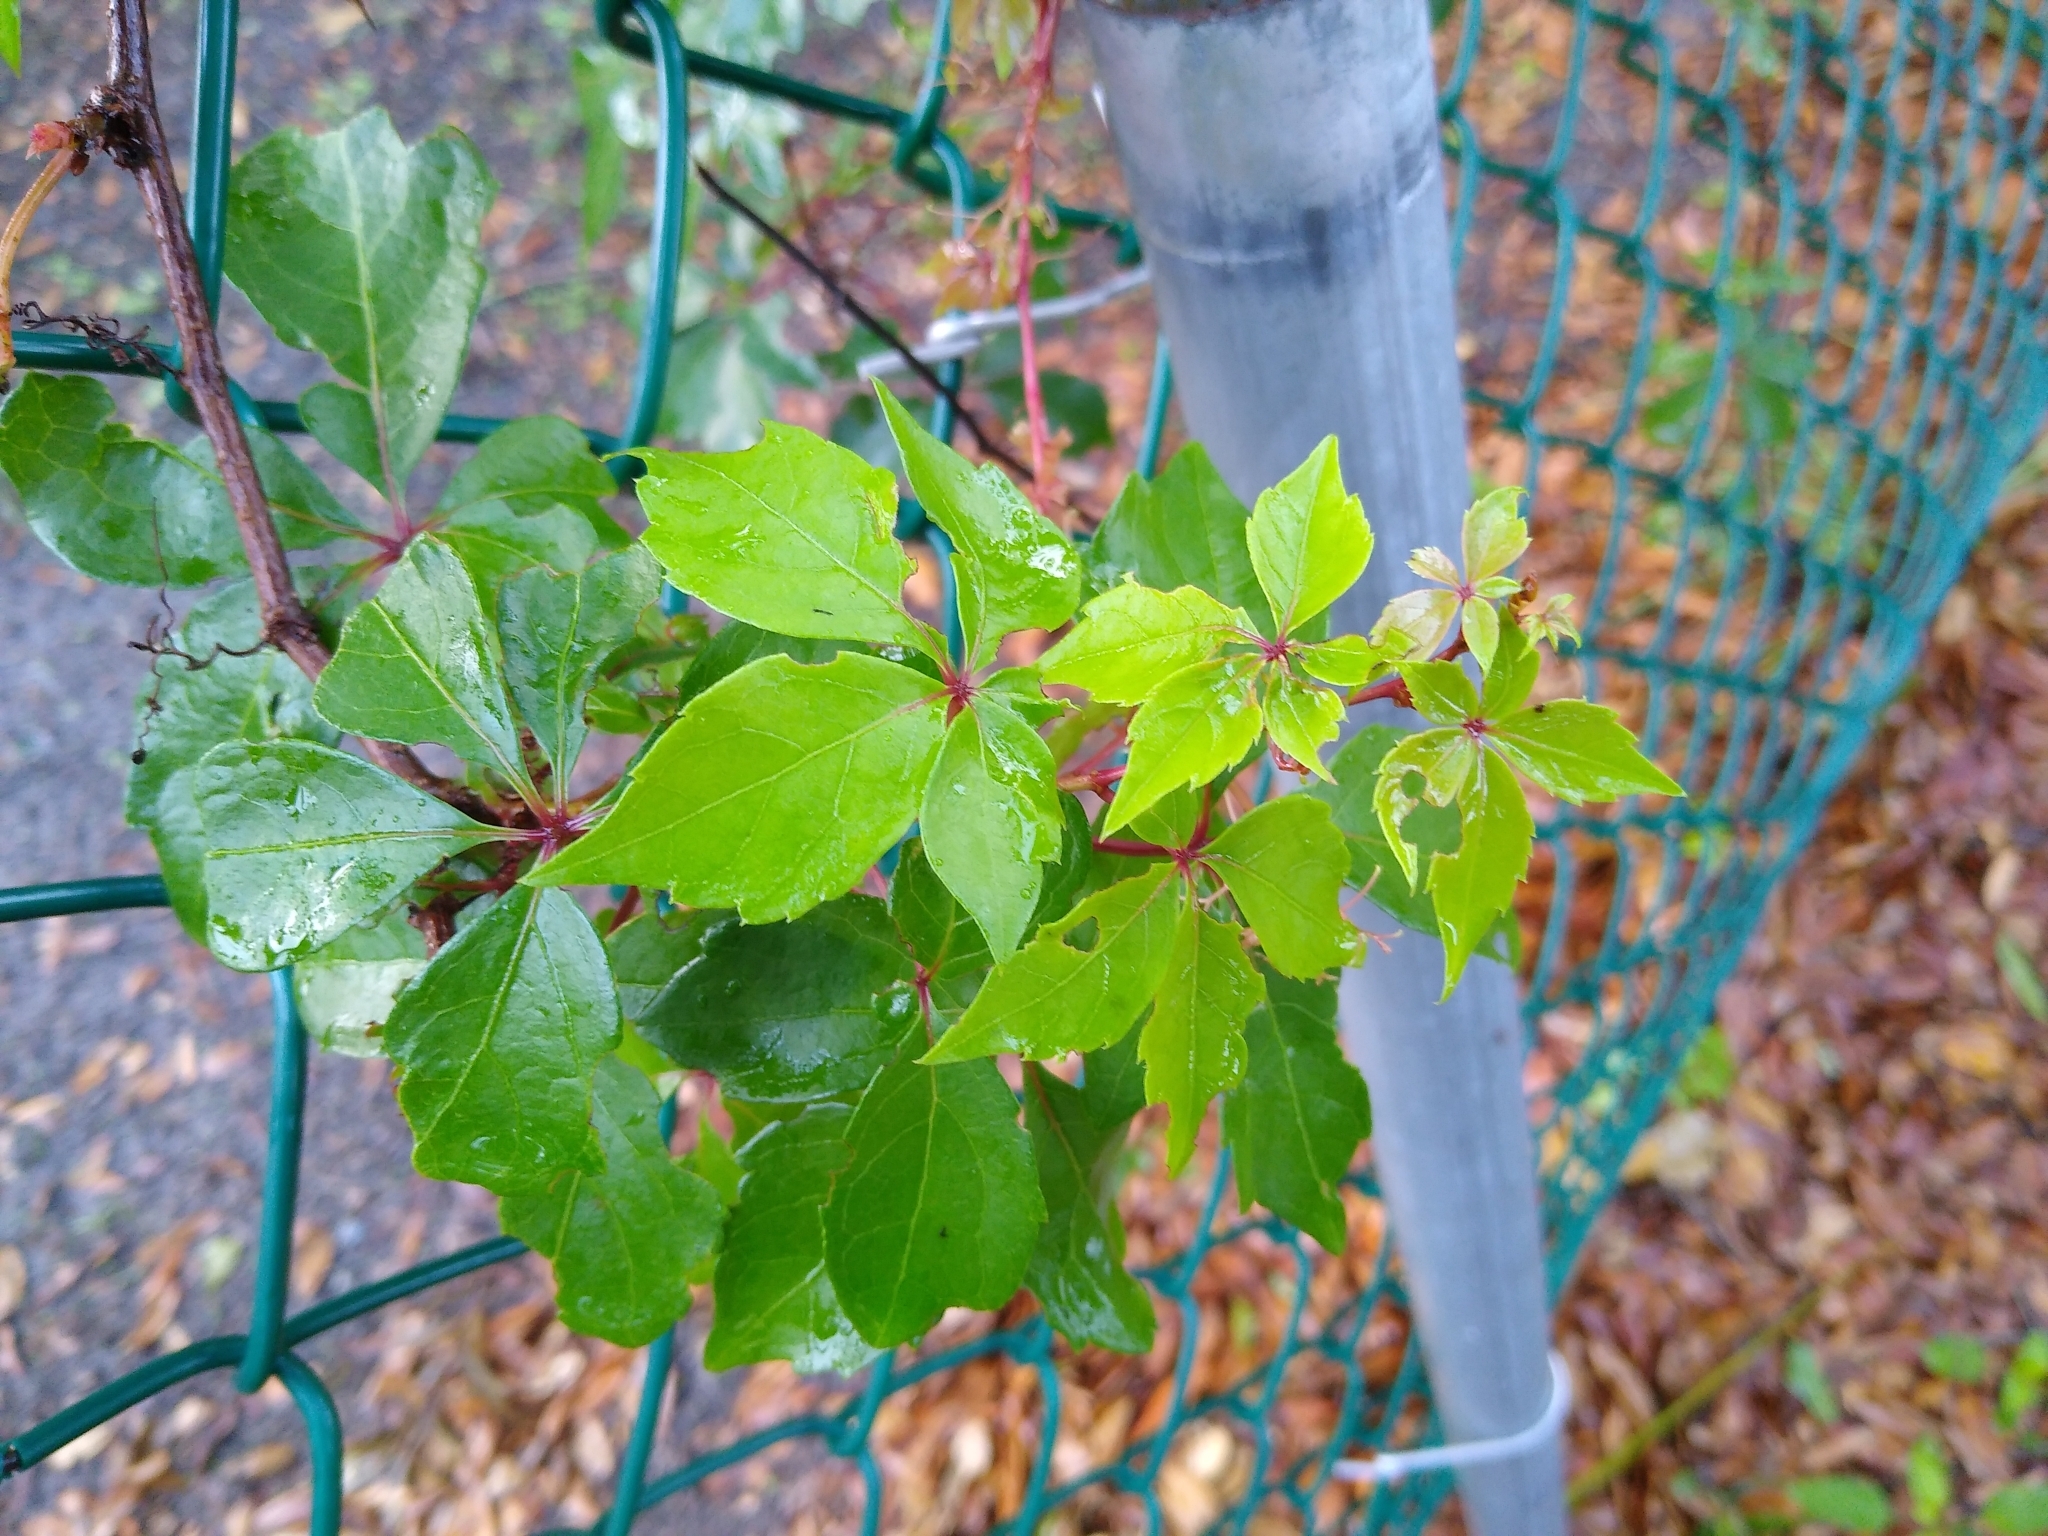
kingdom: Plantae
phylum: Tracheophyta
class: Magnoliopsida
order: Vitales
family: Vitaceae
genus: Parthenocissus
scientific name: Parthenocissus quinquefolia
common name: Virginia-creeper
